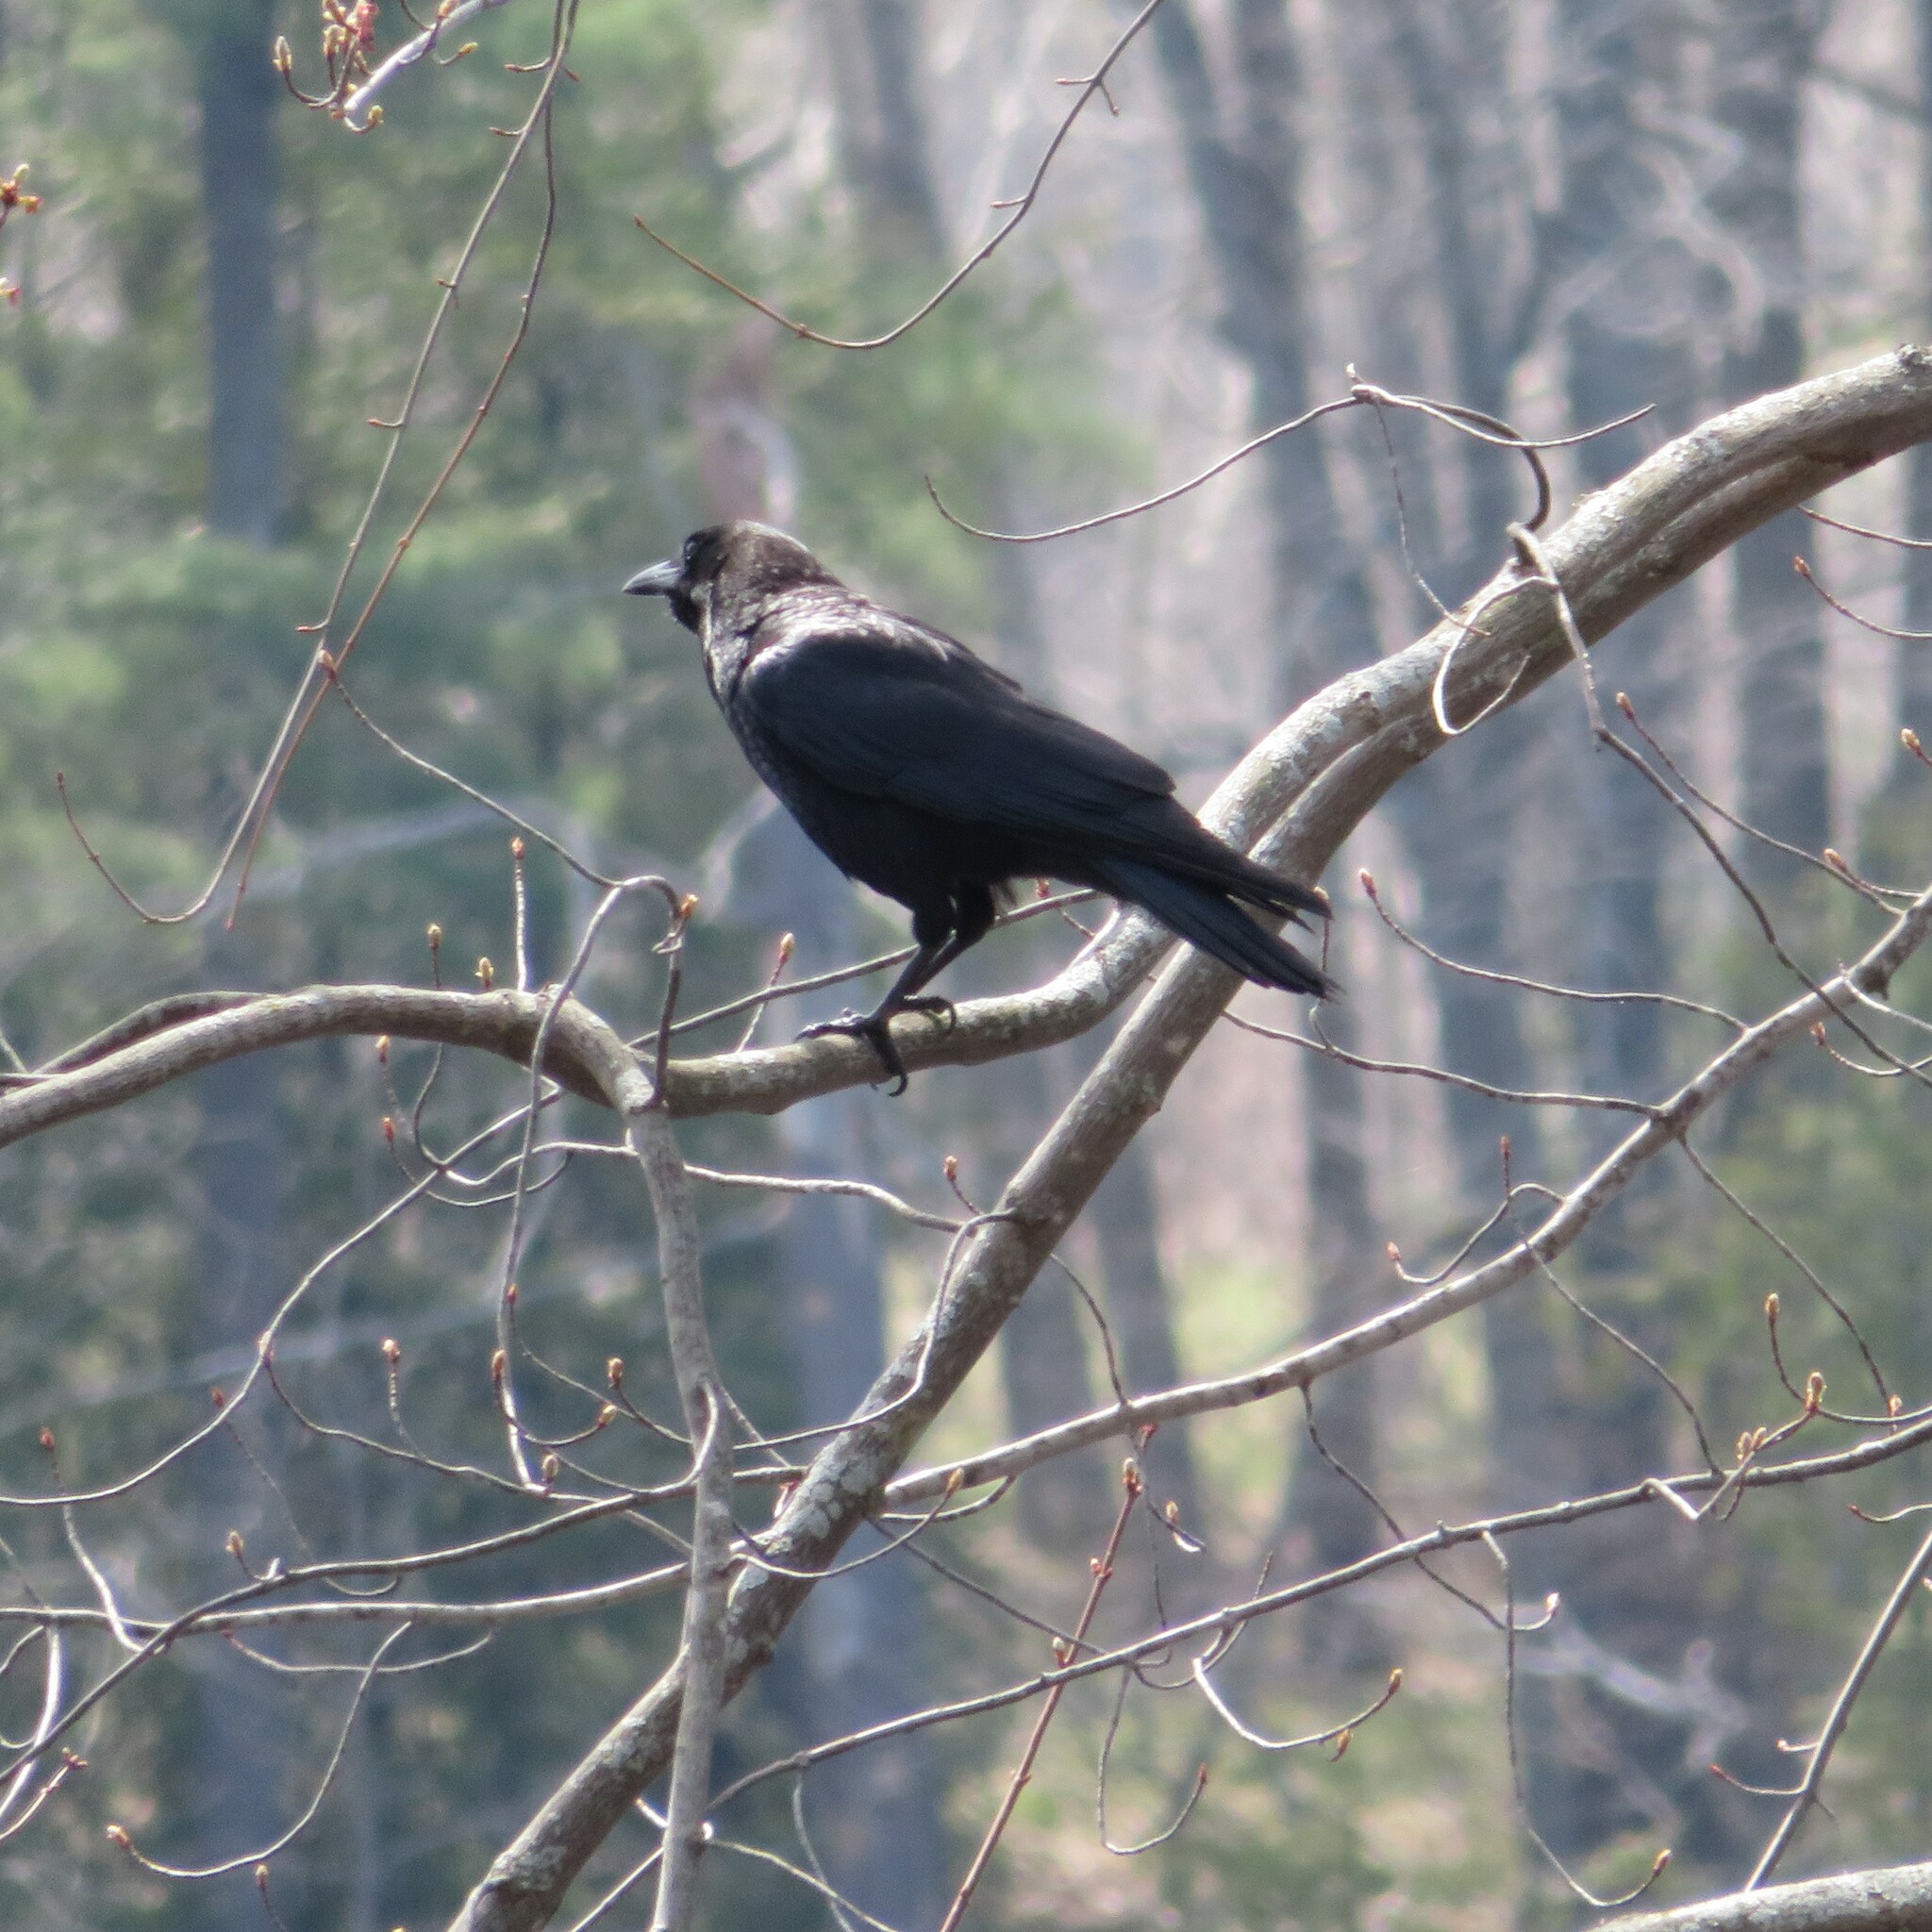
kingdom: Animalia
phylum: Chordata
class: Aves
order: Passeriformes
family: Corvidae
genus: Corvus
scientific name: Corvus brachyrhynchos
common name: American crow
